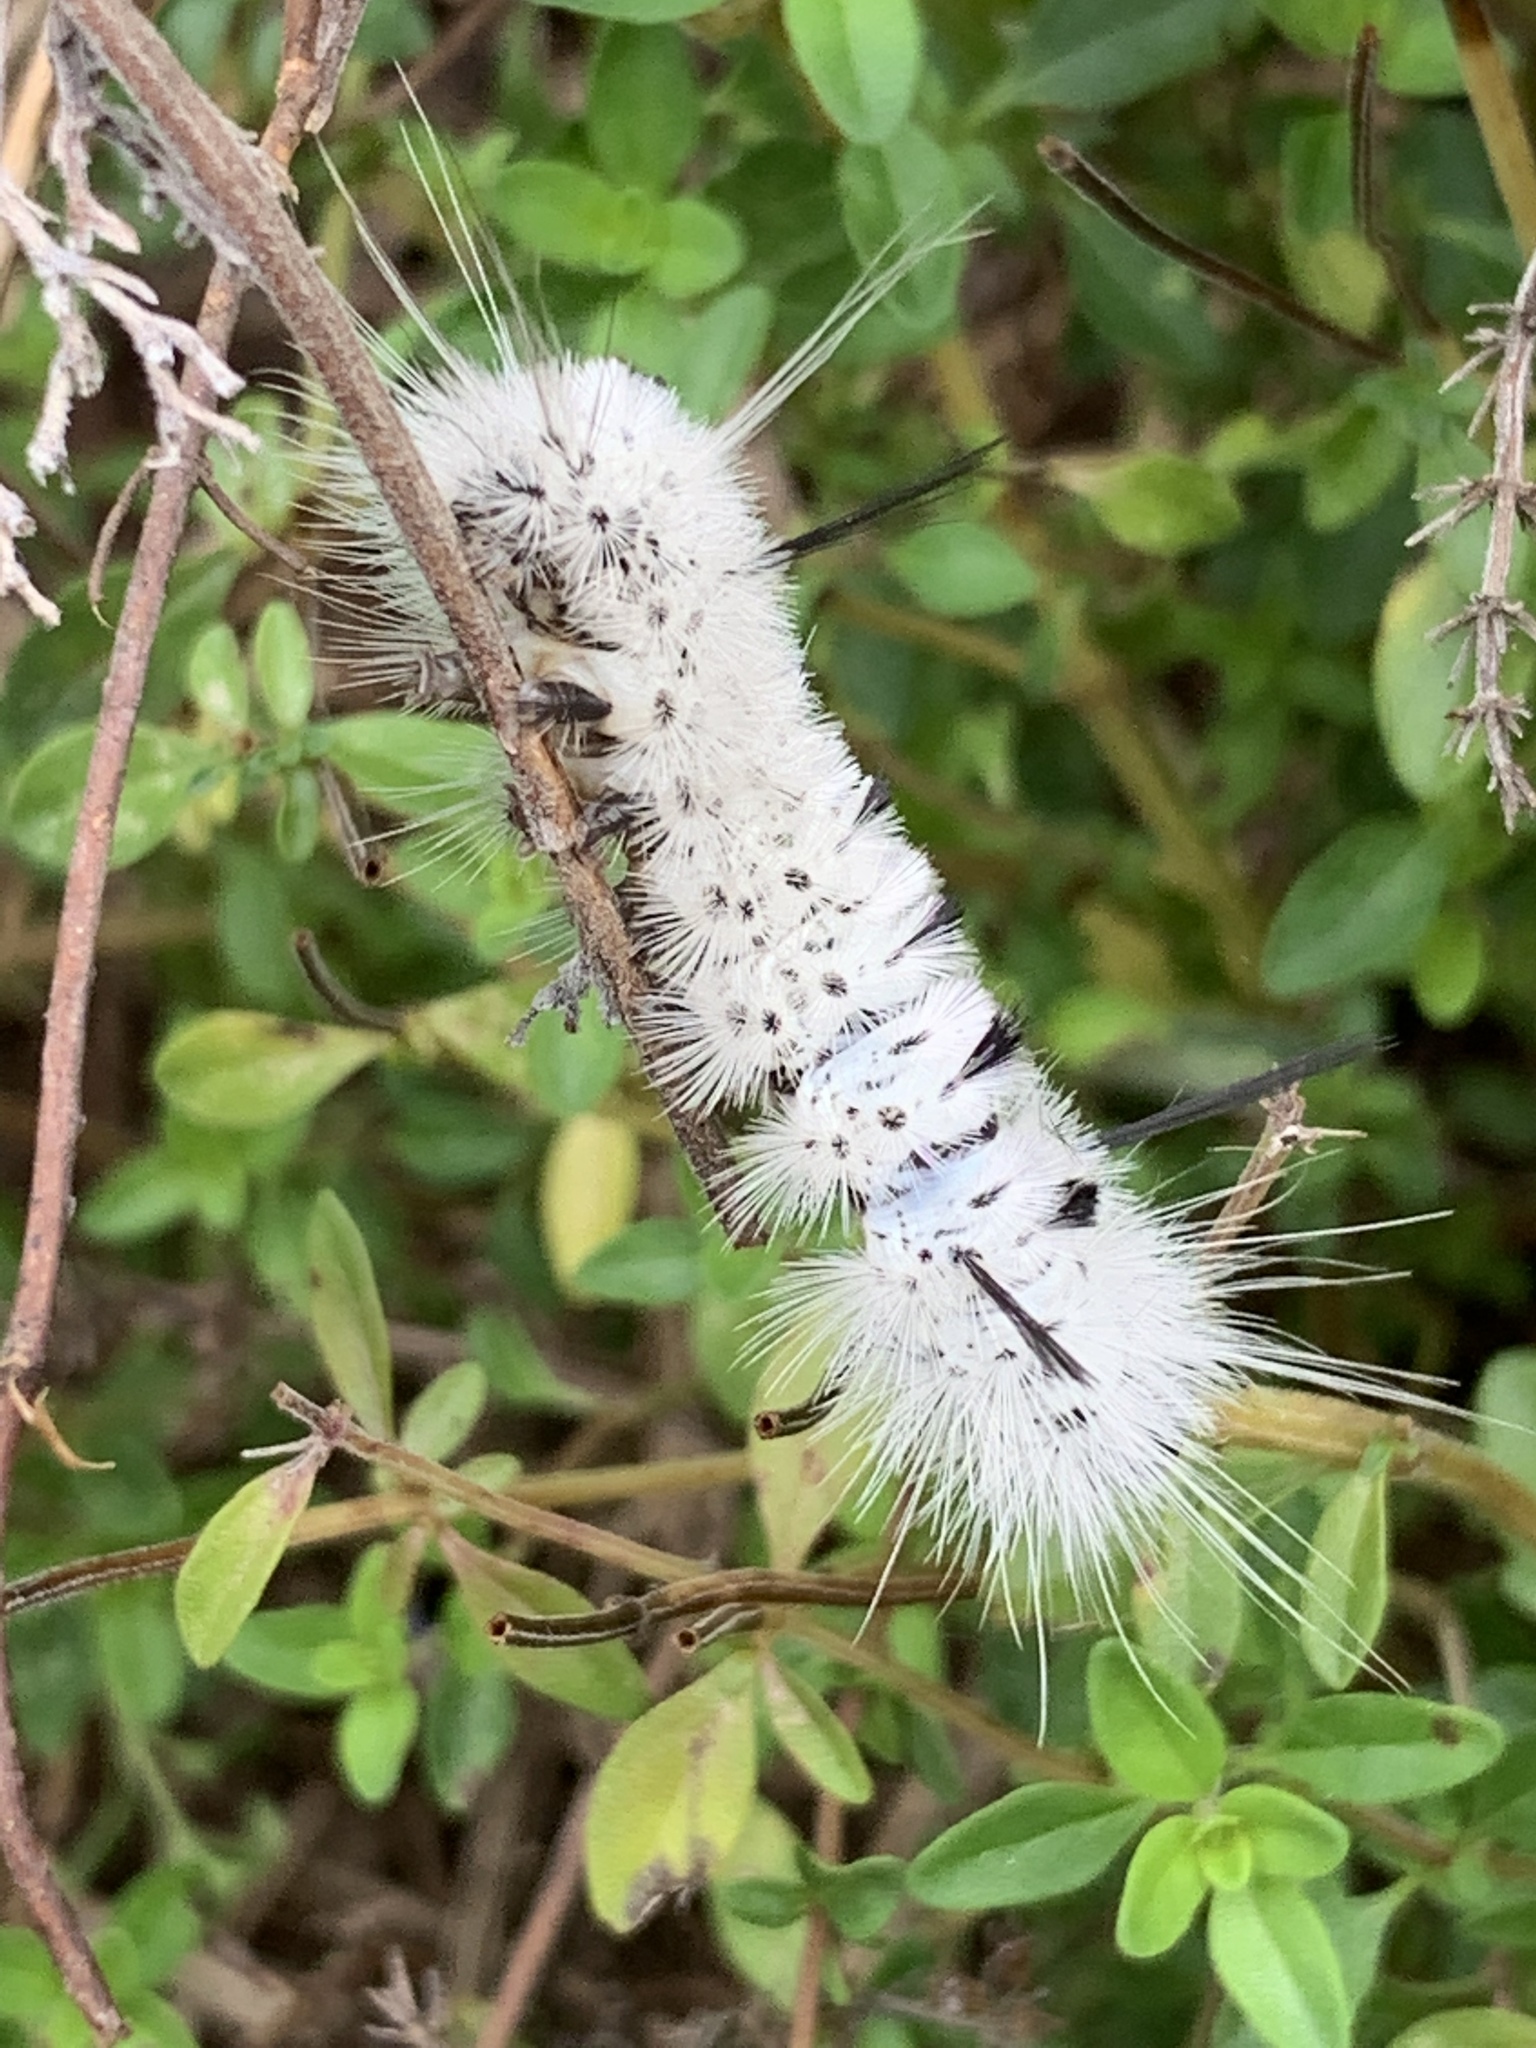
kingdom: Animalia
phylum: Arthropoda
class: Insecta
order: Lepidoptera
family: Erebidae
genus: Lophocampa
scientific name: Lophocampa caryae
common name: Hickory tussock moth
